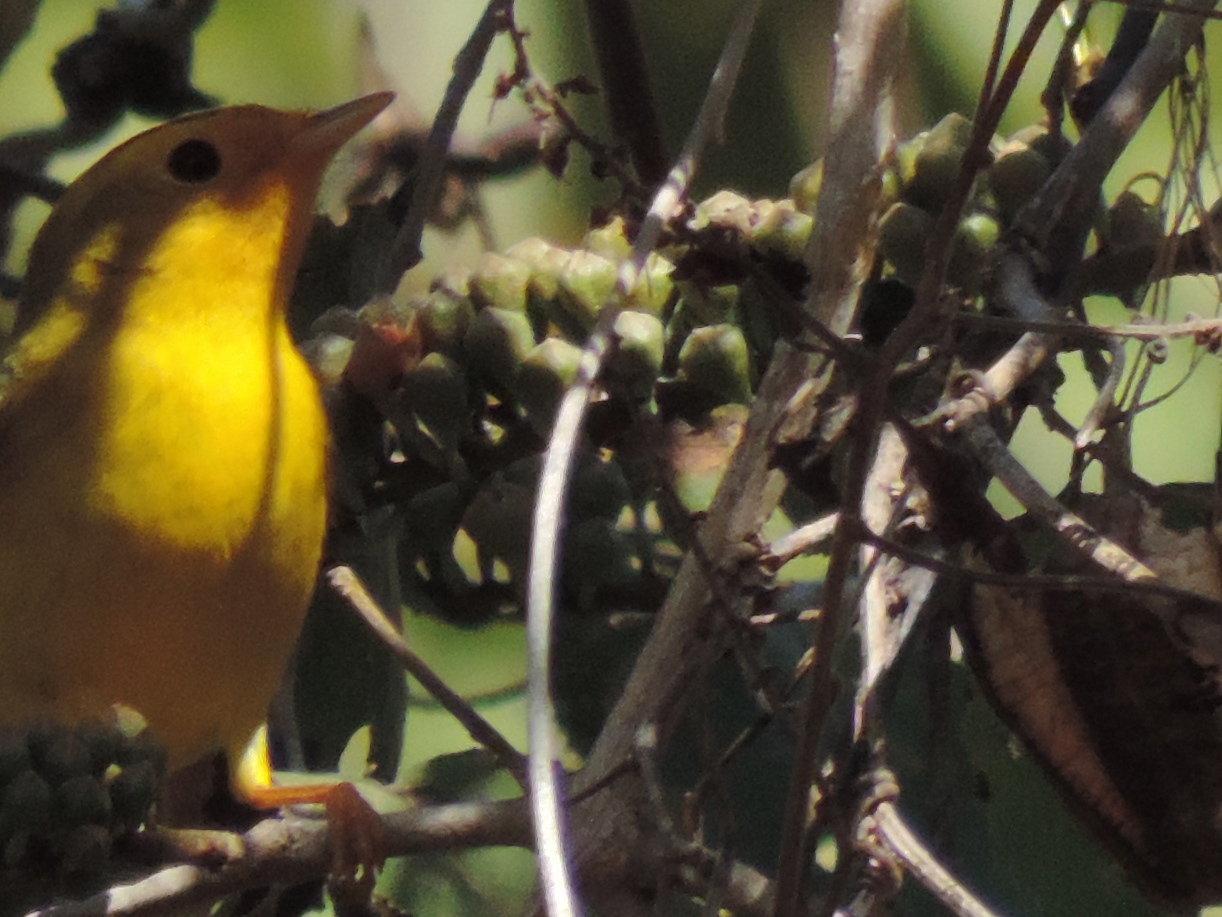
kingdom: Animalia
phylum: Chordata
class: Aves
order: Passeriformes
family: Parulidae
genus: Cardellina
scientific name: Cardellina pusilla
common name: Wilson's warbler
